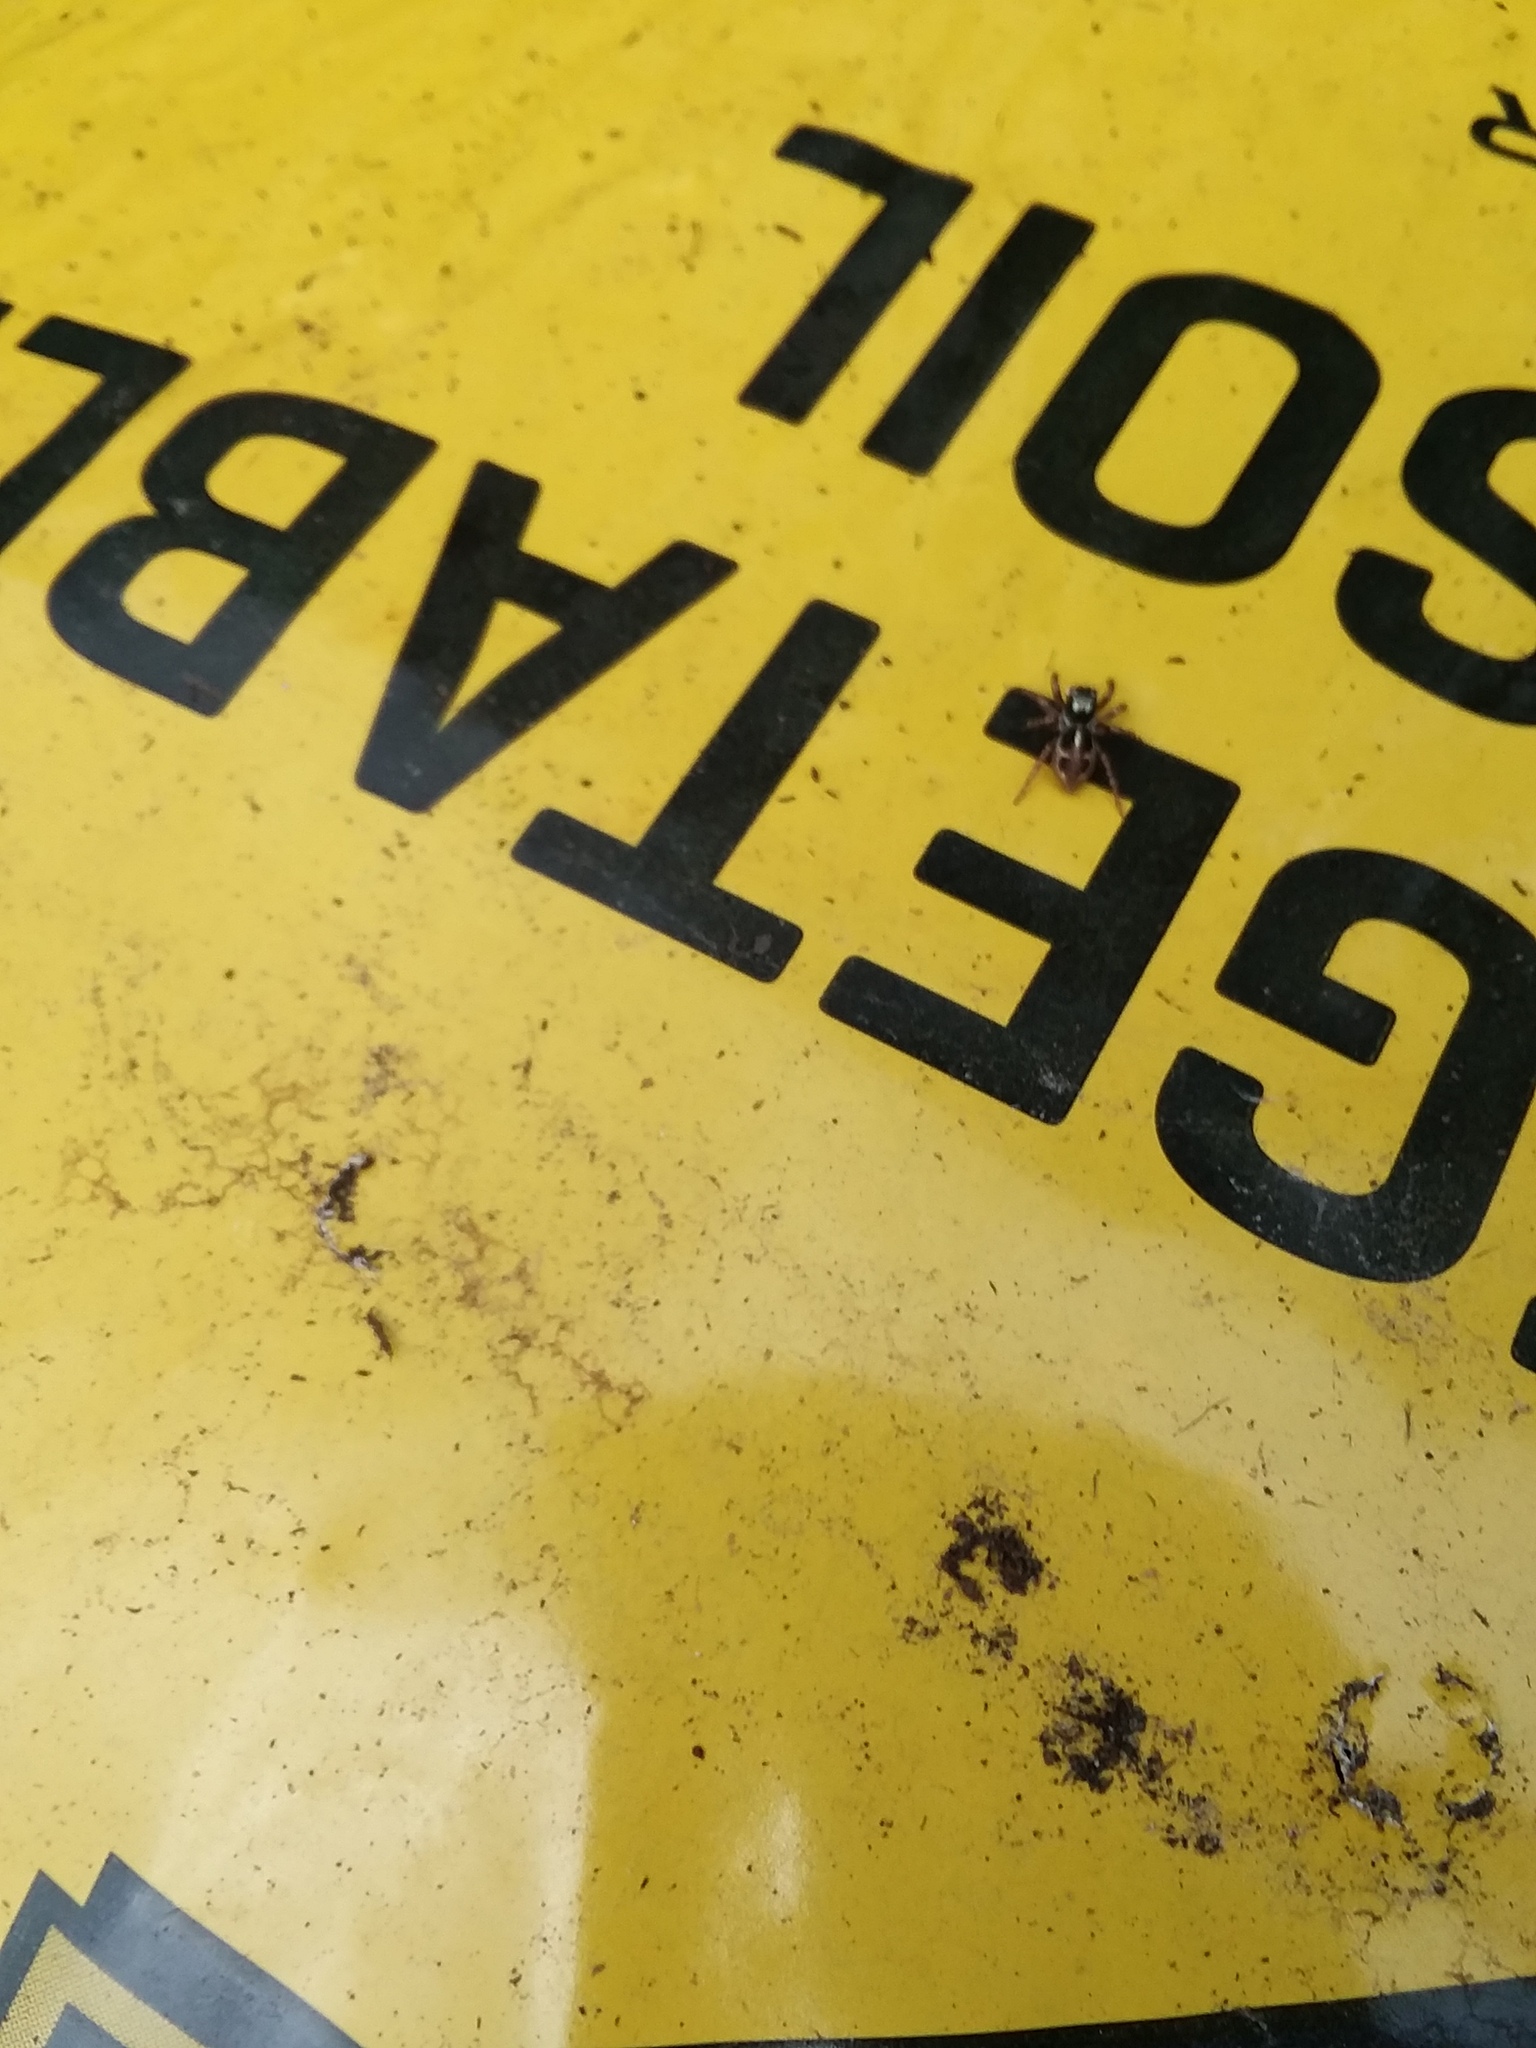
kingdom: Animalia
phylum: Arthropoda
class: Arachnida
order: Araneae
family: Salticidae
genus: Anasaitis
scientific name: Anasaitis canosa
